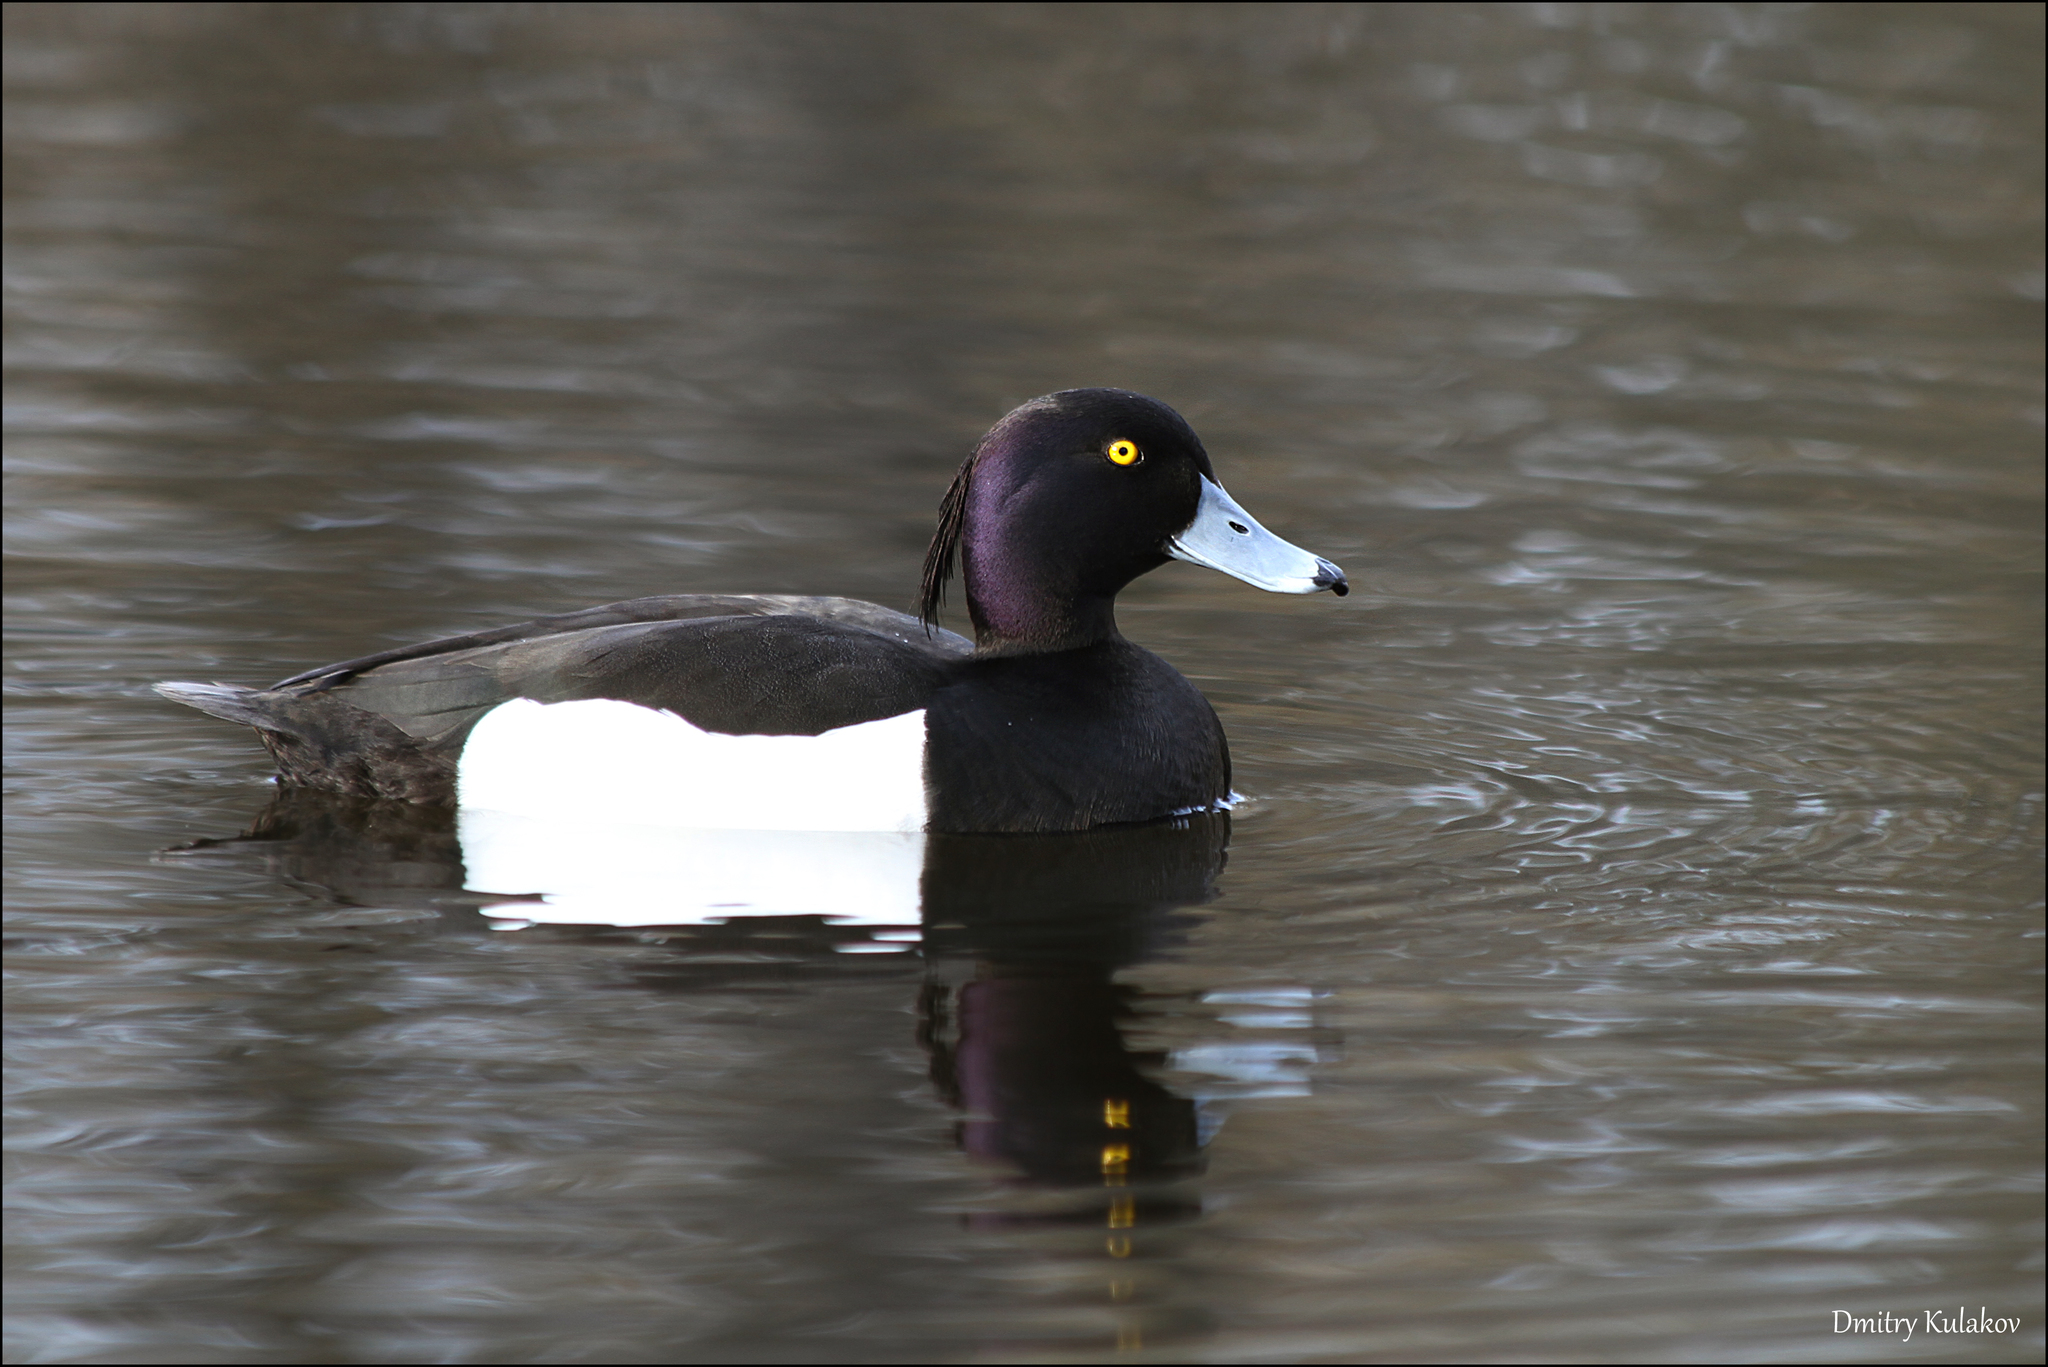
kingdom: Animalia
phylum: Chordata
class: Aves
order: Anseriformes
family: Anatidae
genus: Aythya
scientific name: Aythya fuligula
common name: Tufted duck
